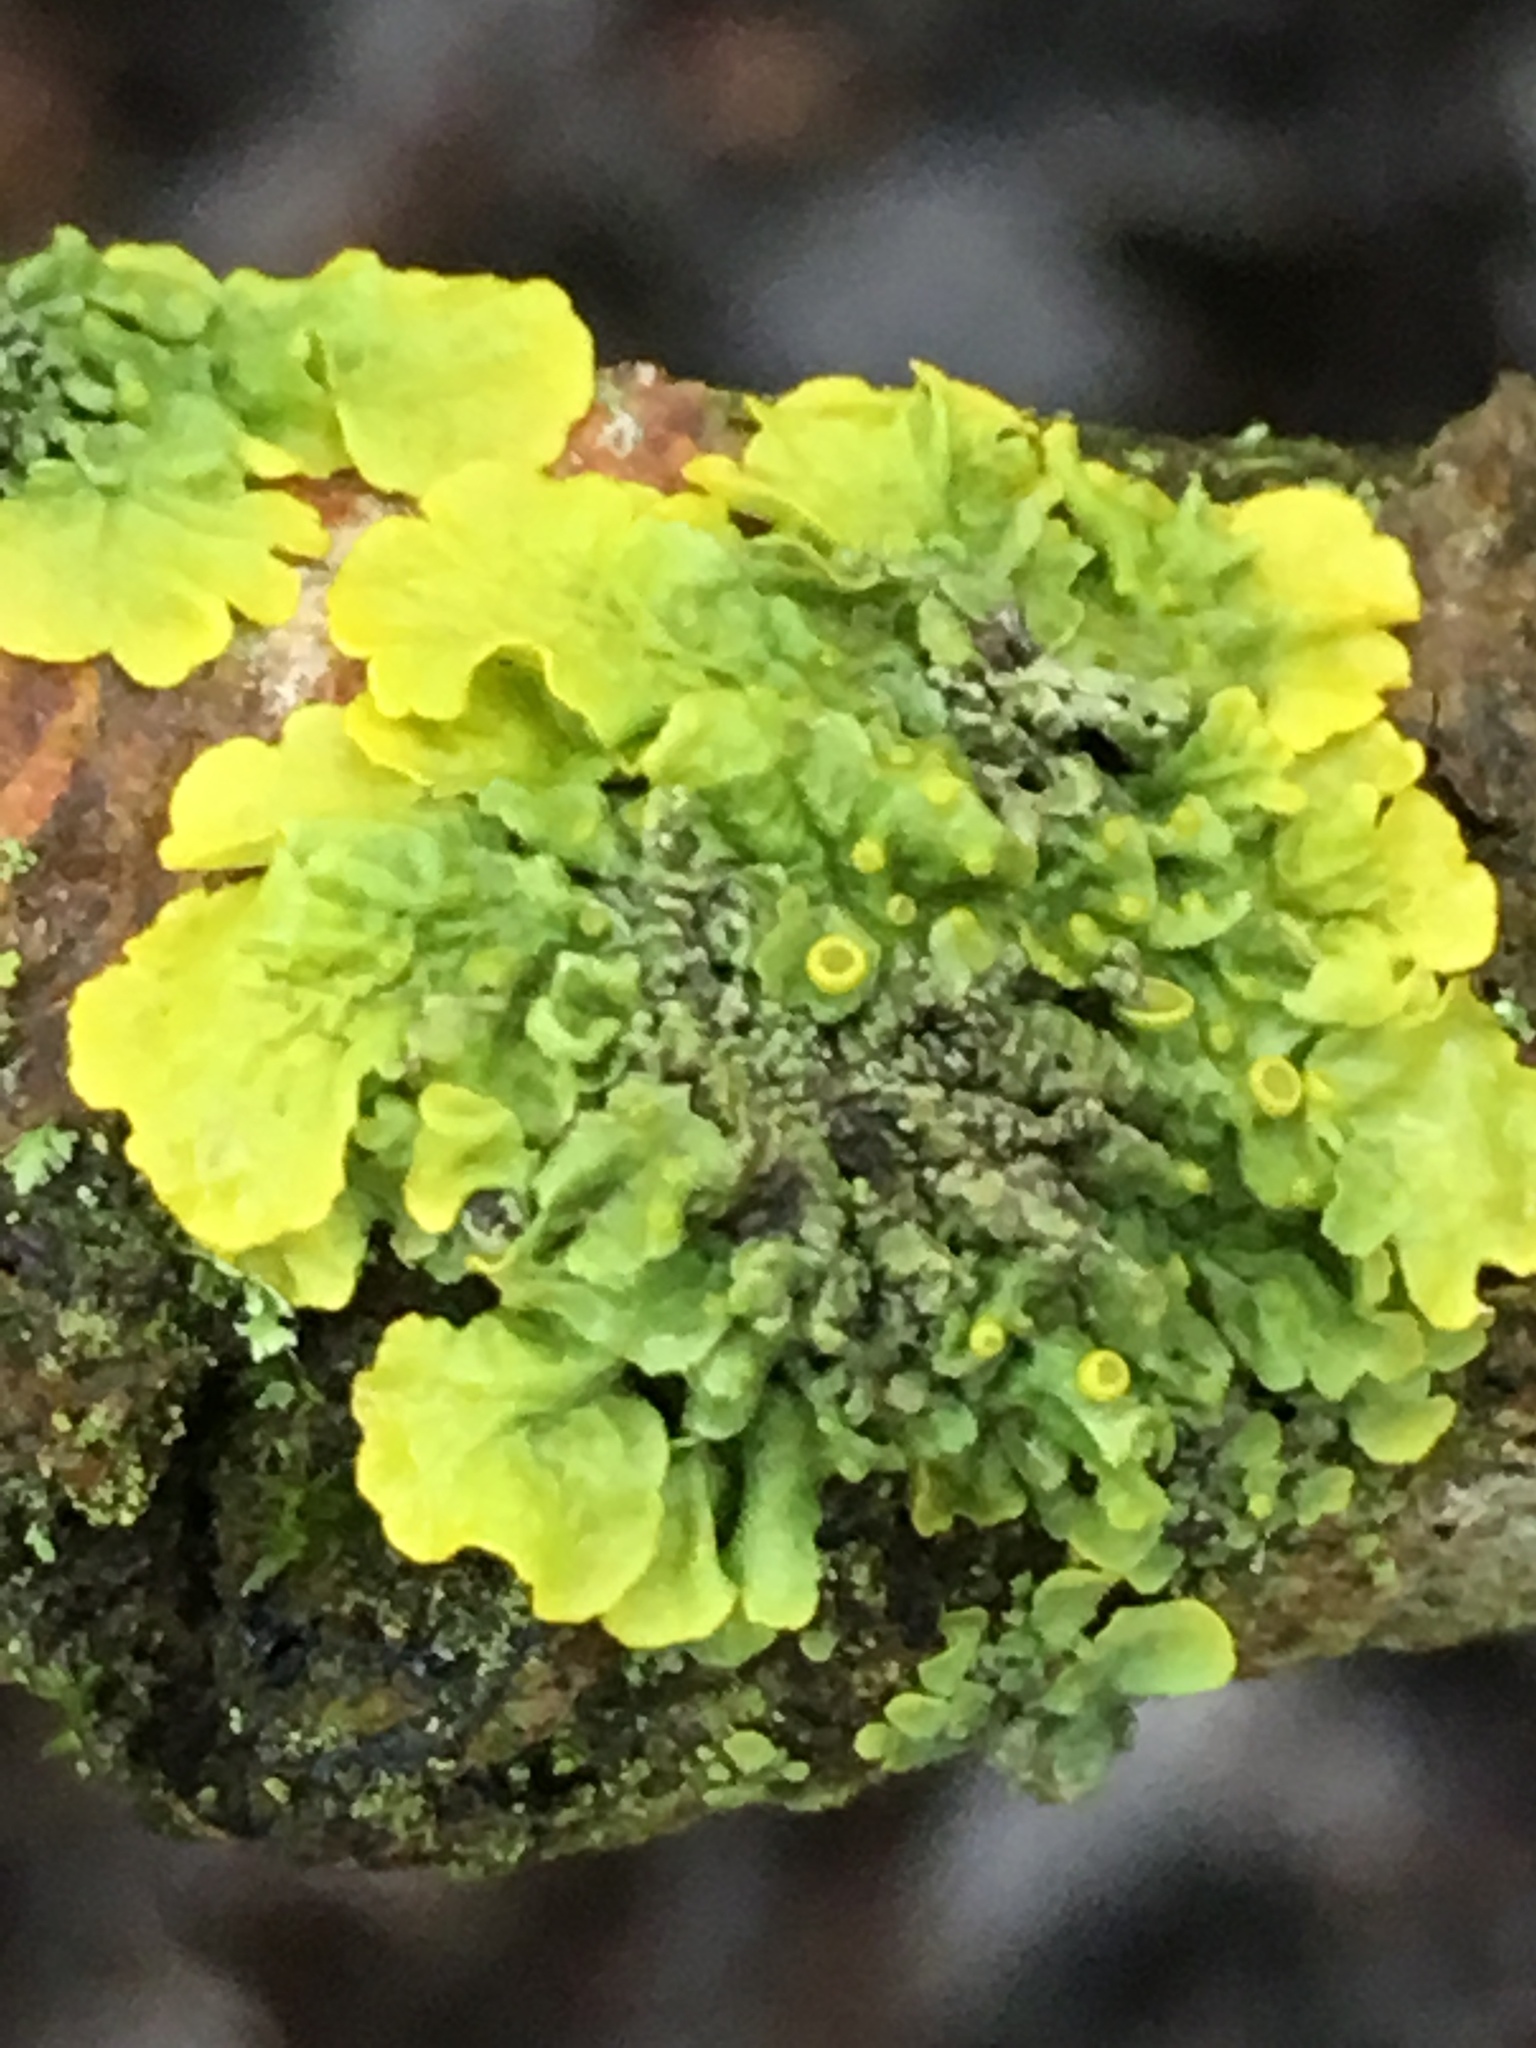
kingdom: Fungi
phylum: Ascomycota
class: Lecanoromycetes
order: Teloschistales
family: Teloschistaceae
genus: Xanthoria
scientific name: Xanthoria parietina
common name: Common orange lichen
